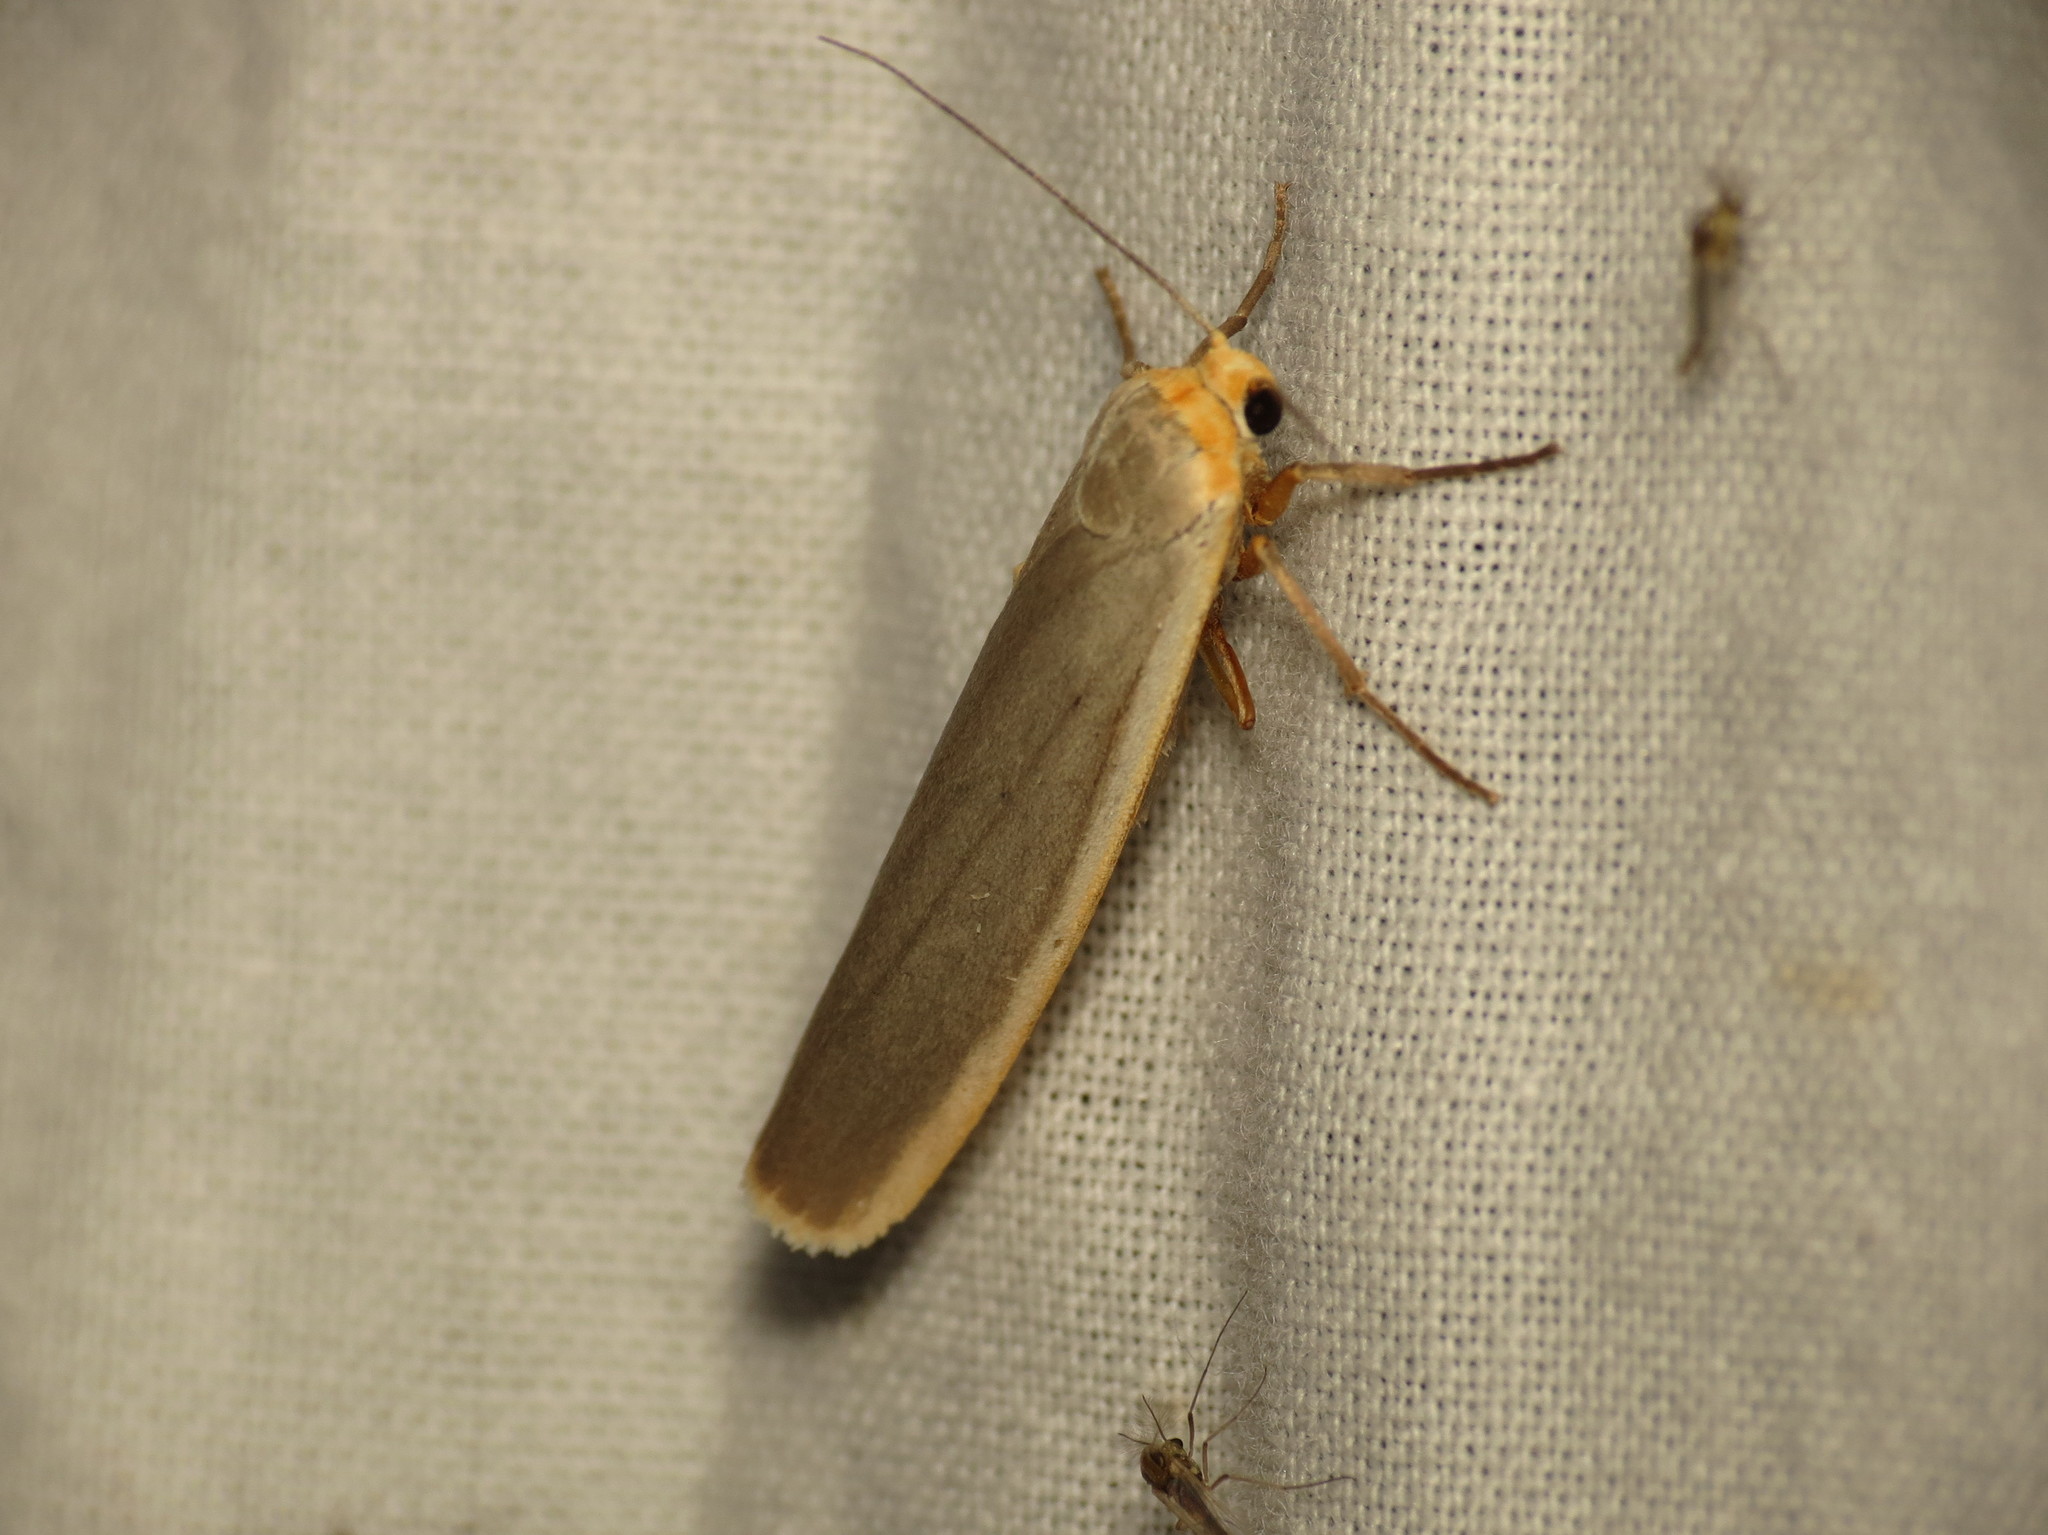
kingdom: Animalia
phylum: Arthropoda
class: Insecta
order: Lepidoptera
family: Erebidae
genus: Manulea
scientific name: Manulea complana
